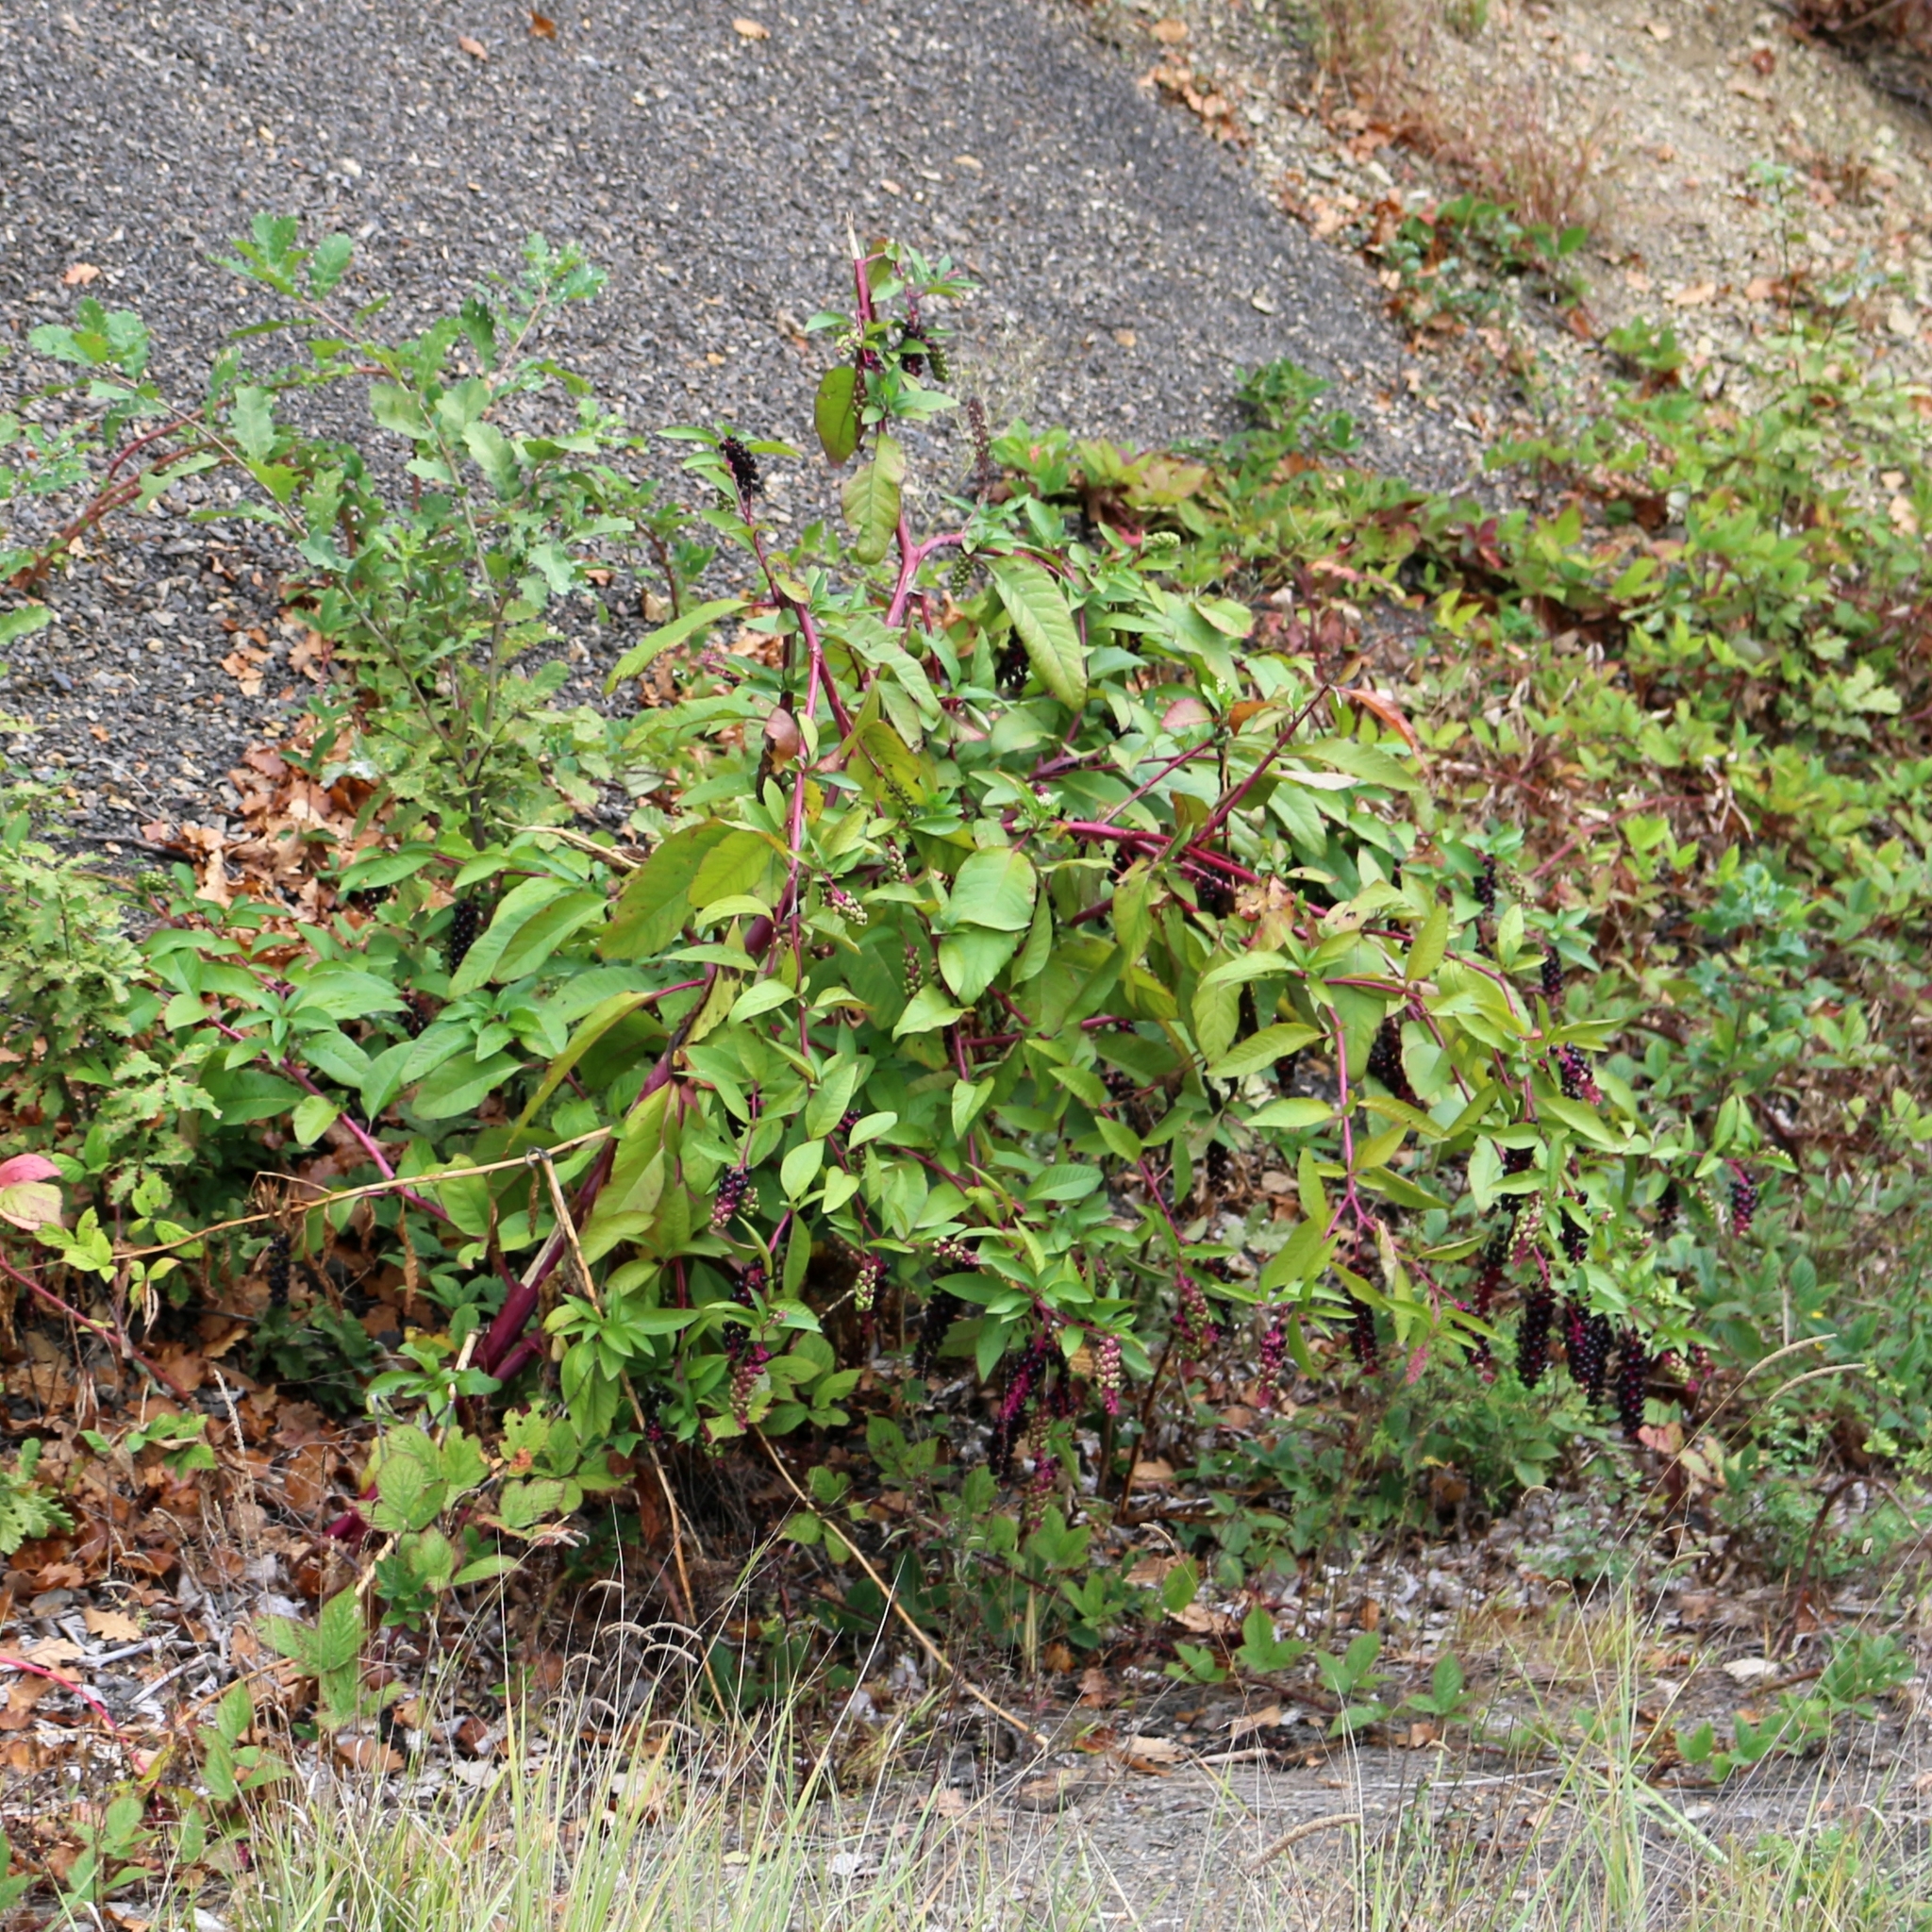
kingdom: Plantae
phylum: Tracheophyta
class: Magnoliopsida
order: Caryophyllales
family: Phytolaccaceae
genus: Phytolacca
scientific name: Phytolacca americana
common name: American pokeweed
